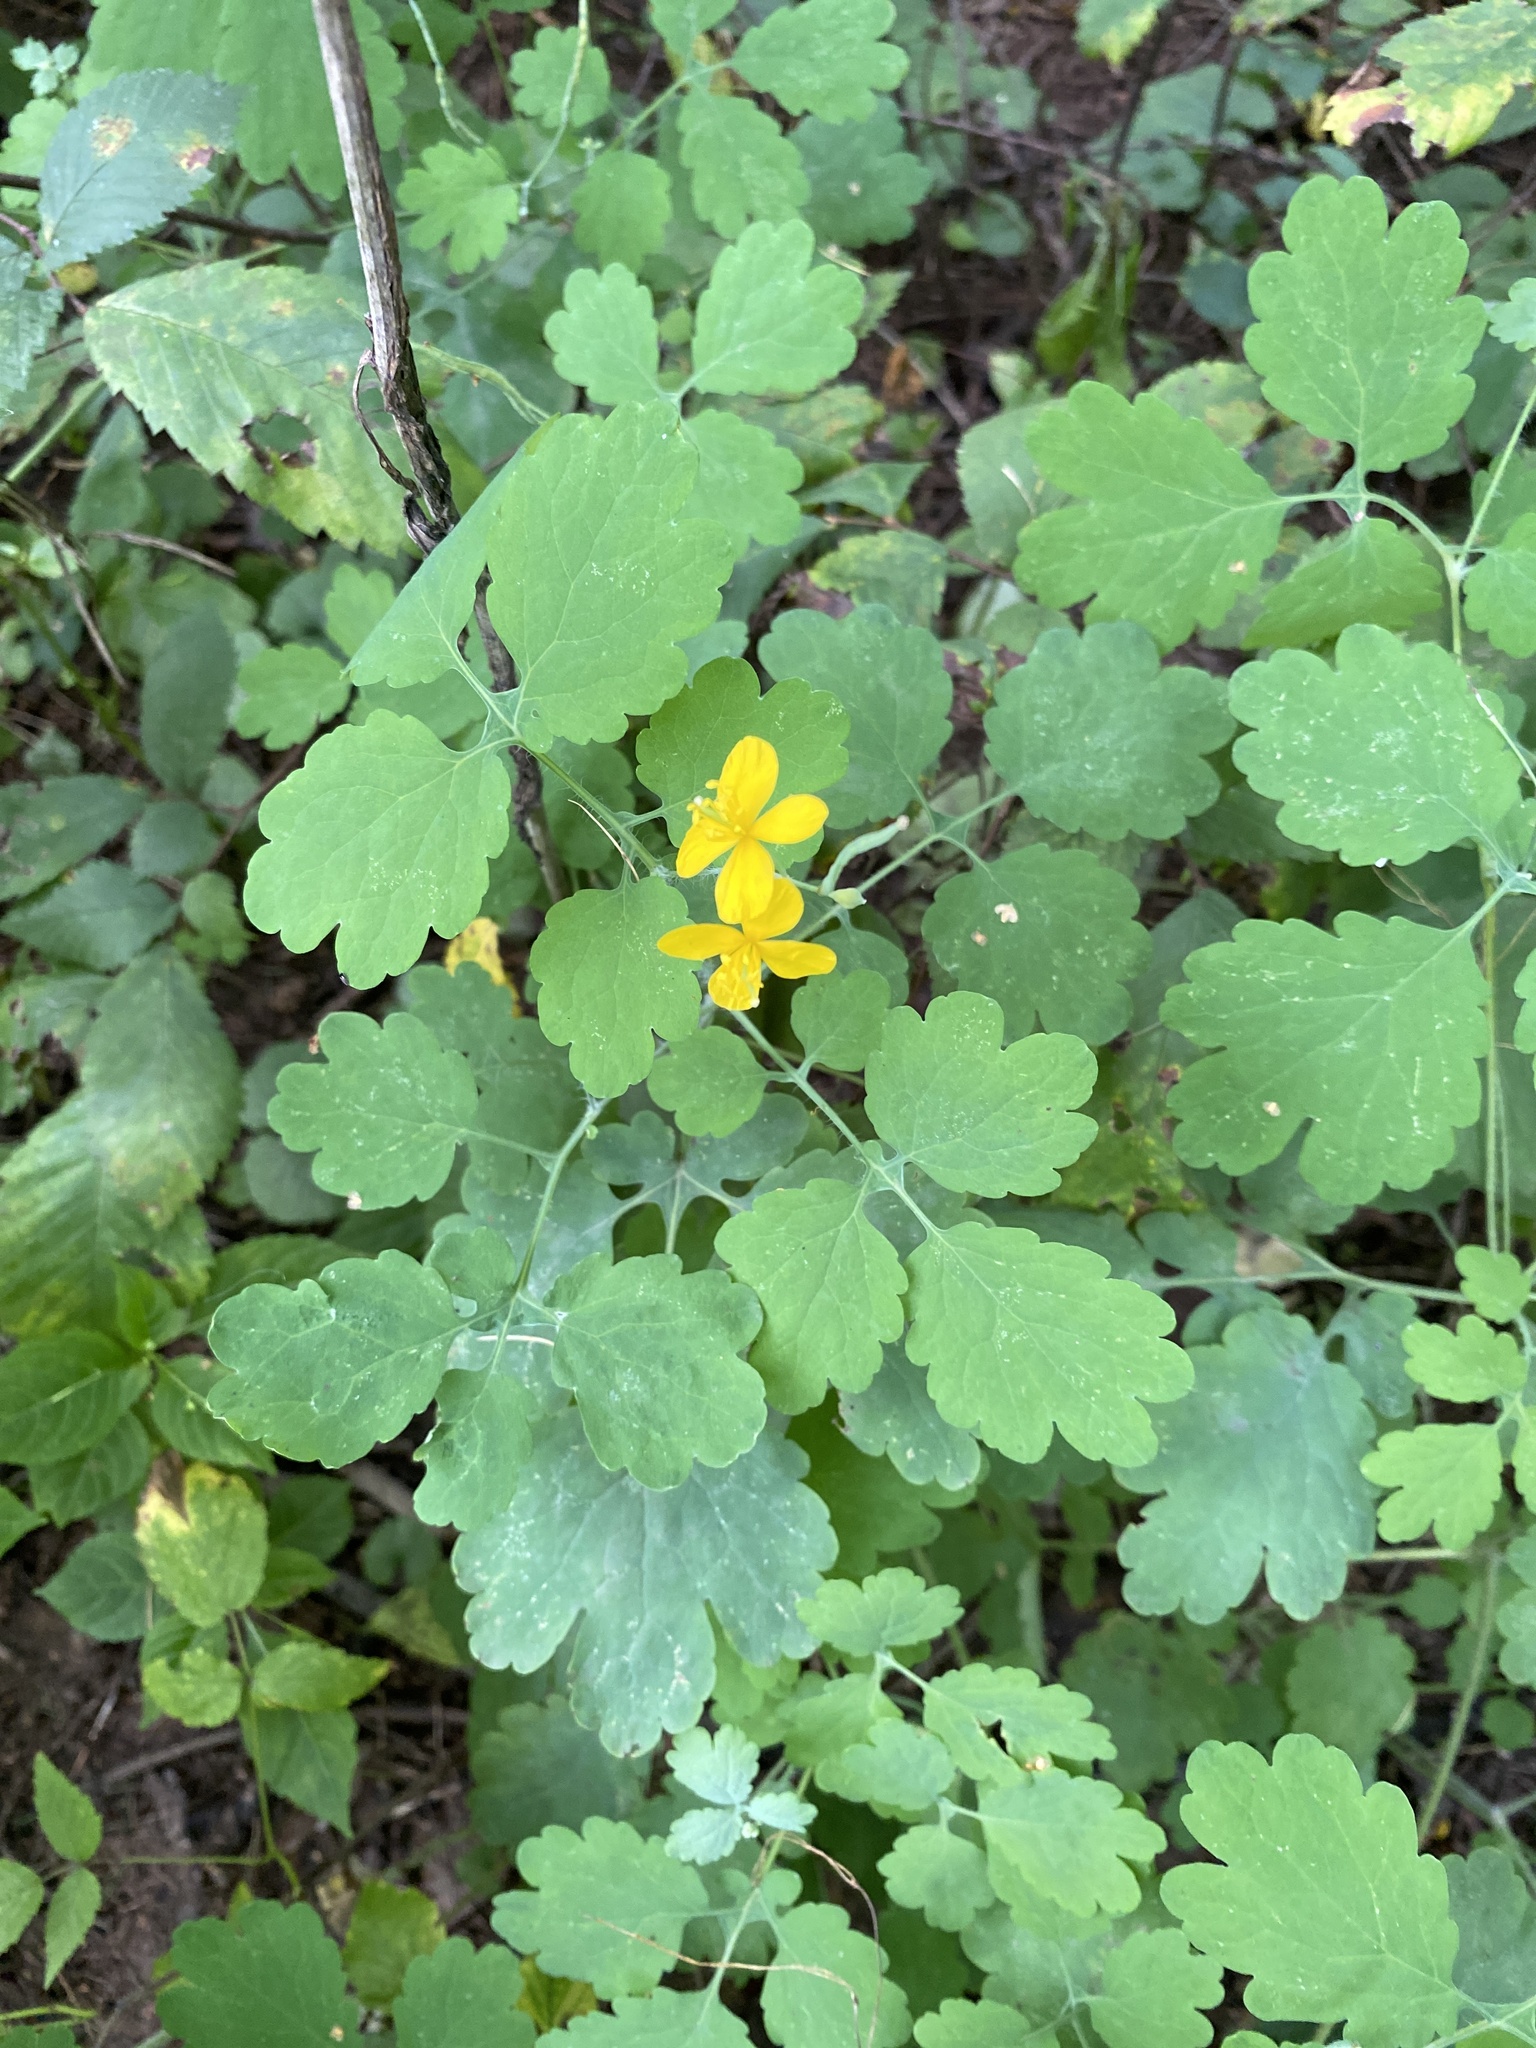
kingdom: Plantae
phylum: Tracheophyta
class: Magnoliopsida
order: Ranunculales
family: Papaveraceae
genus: Chelidonium
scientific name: Chelidonium majus
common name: Greater celandine
